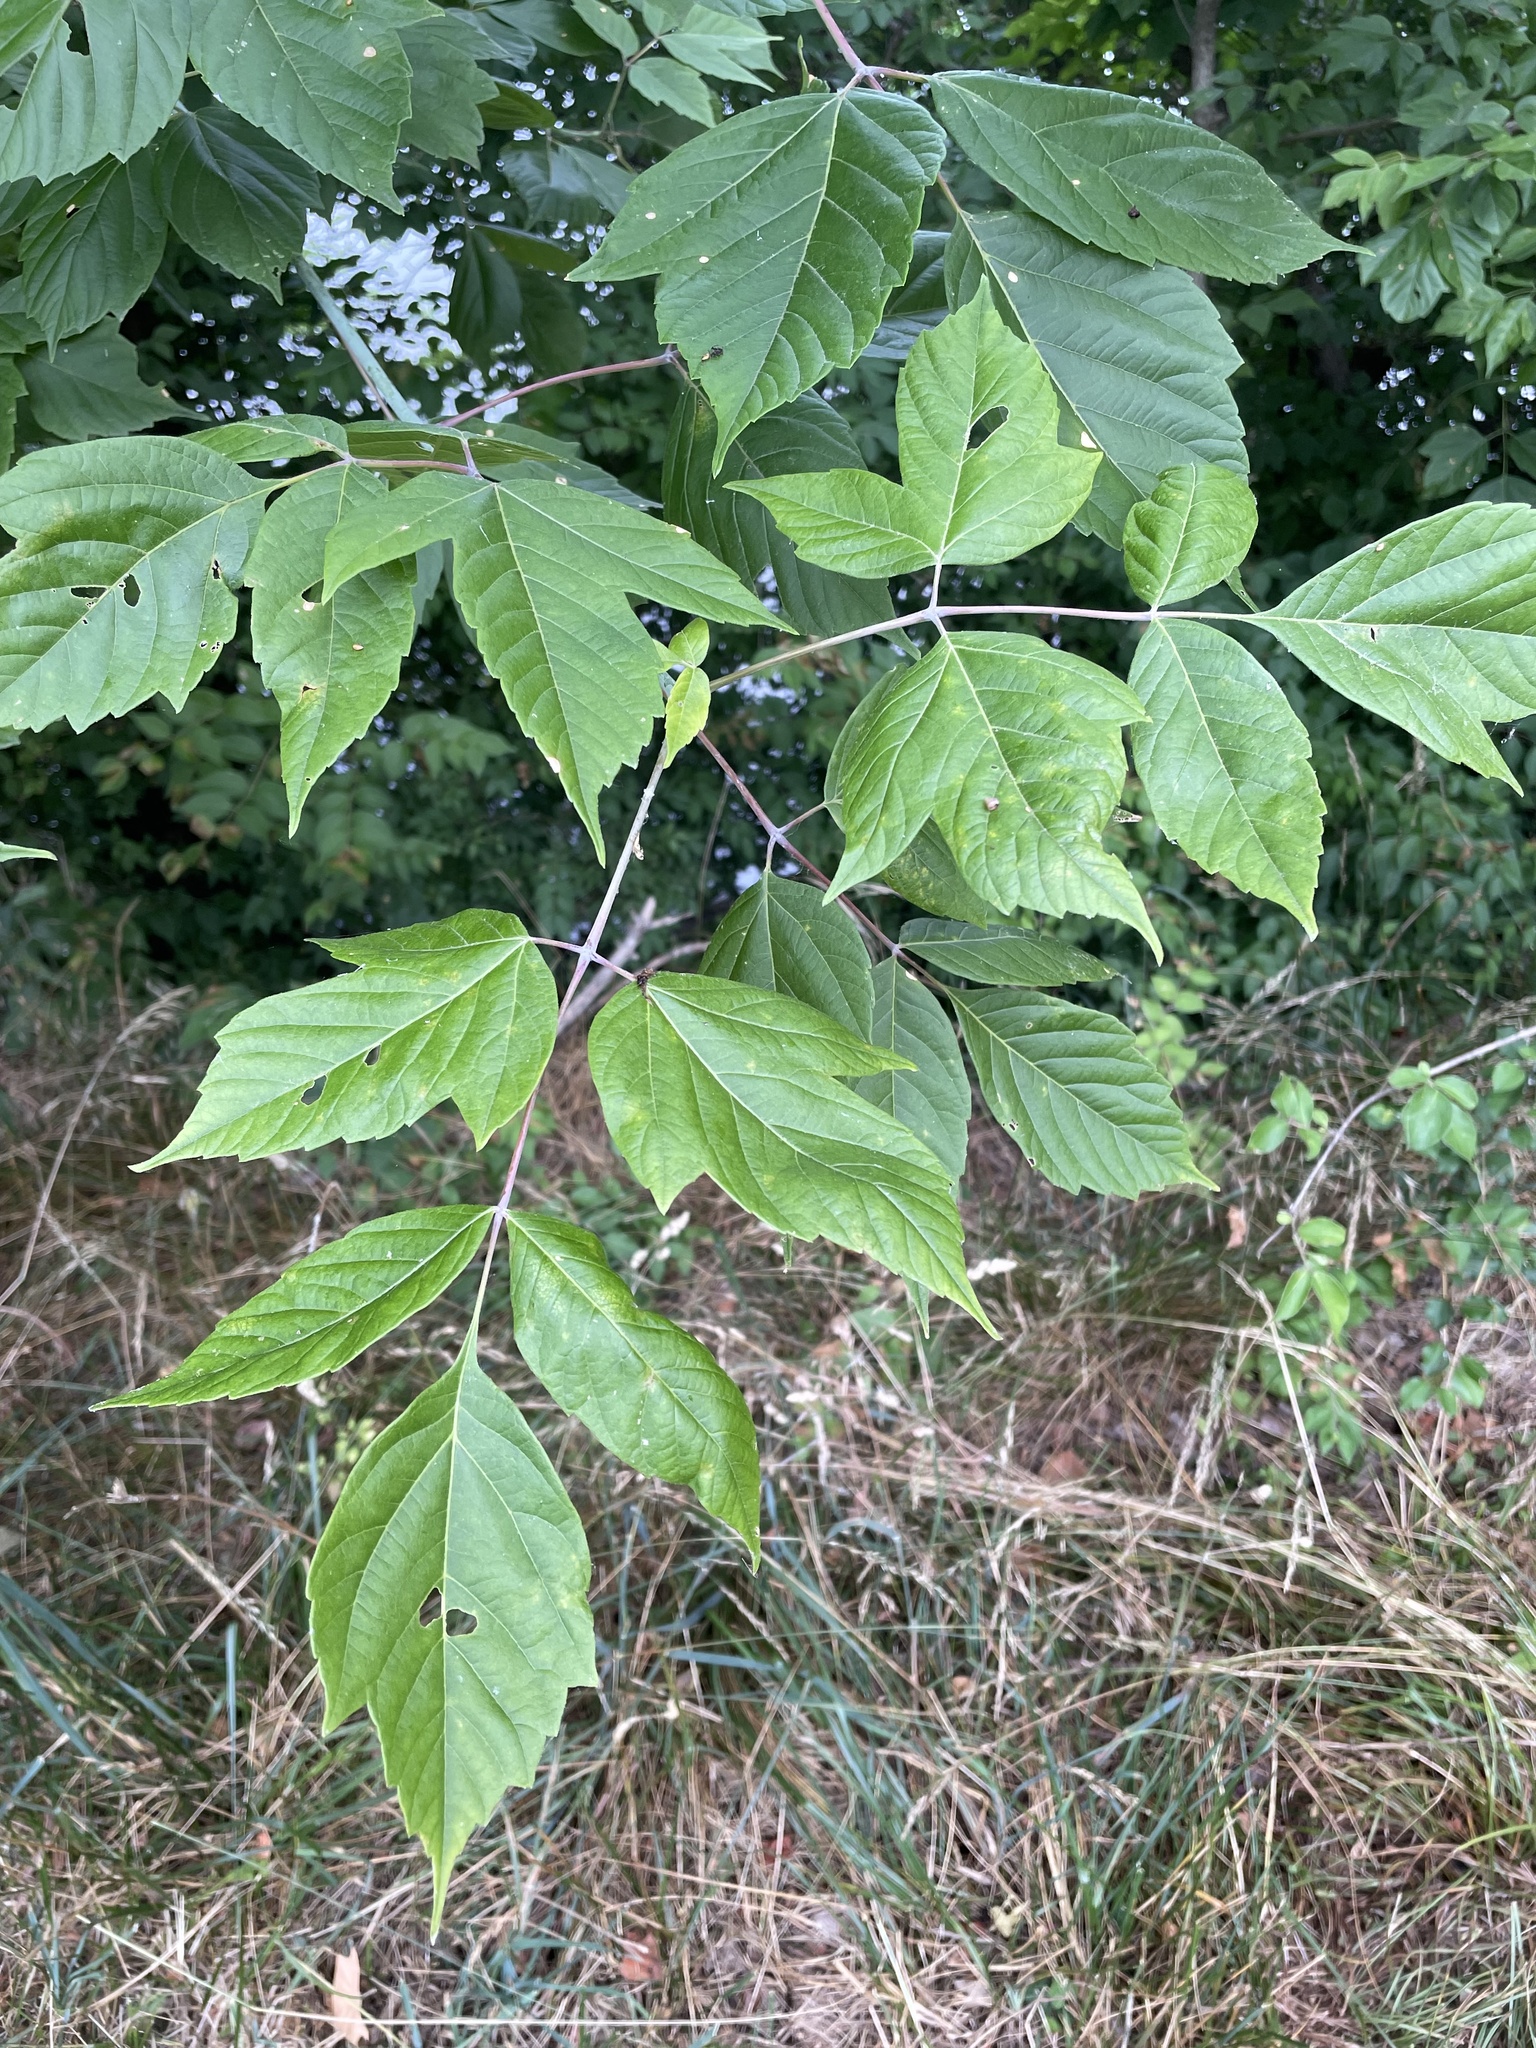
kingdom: Plantae
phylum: Tracheophyta
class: Magnoliopsida
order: Sapindales
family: Sapindaceae
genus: Acer
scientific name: Acer negundo
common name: Ashleaf maple
